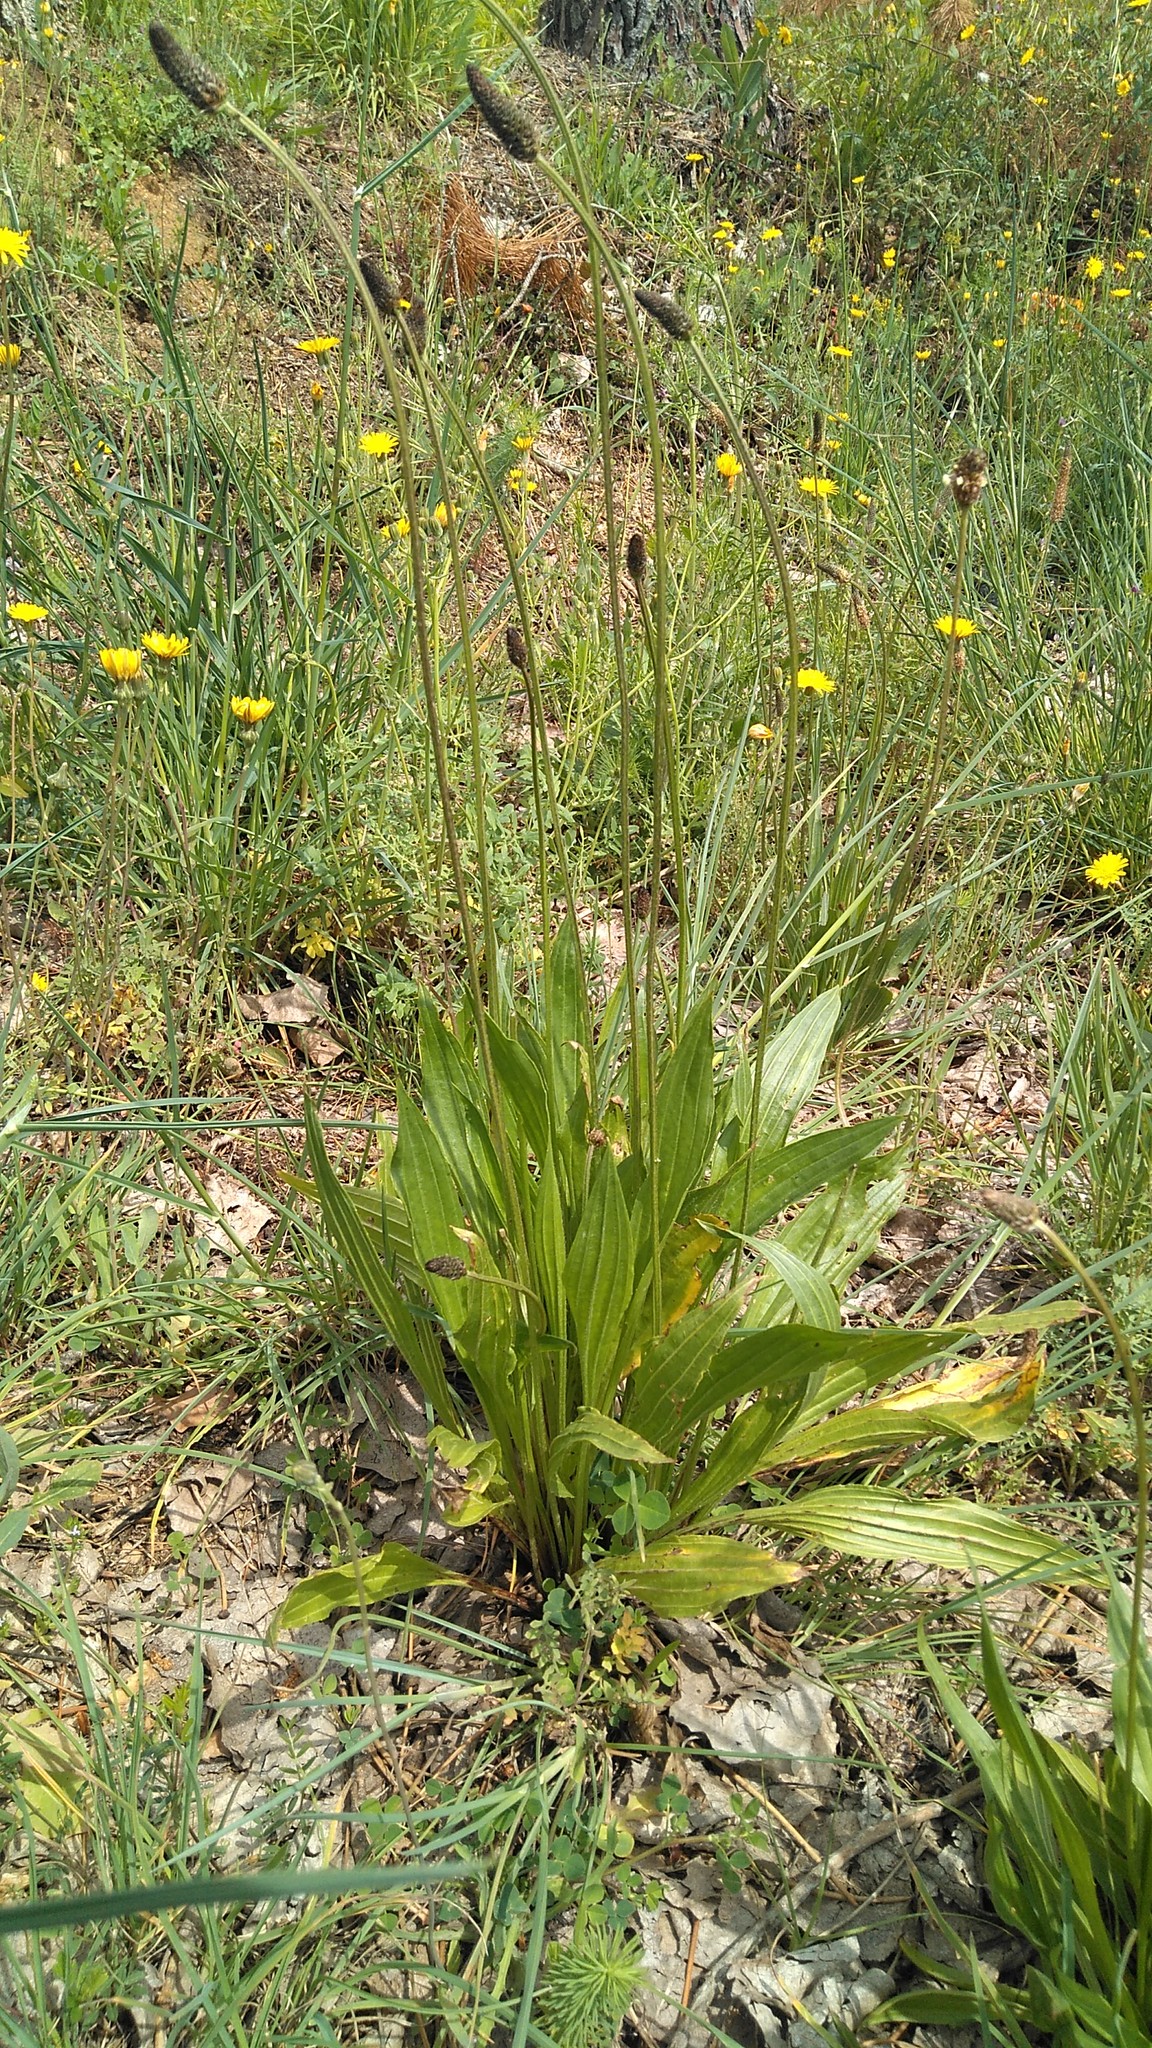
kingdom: Plantae
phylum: Tracheophyta
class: Magnoliopsida
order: Lamiales
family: Plantaginaceae
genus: Plantago
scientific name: Plantago lanceolata
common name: Ribwort plantain
